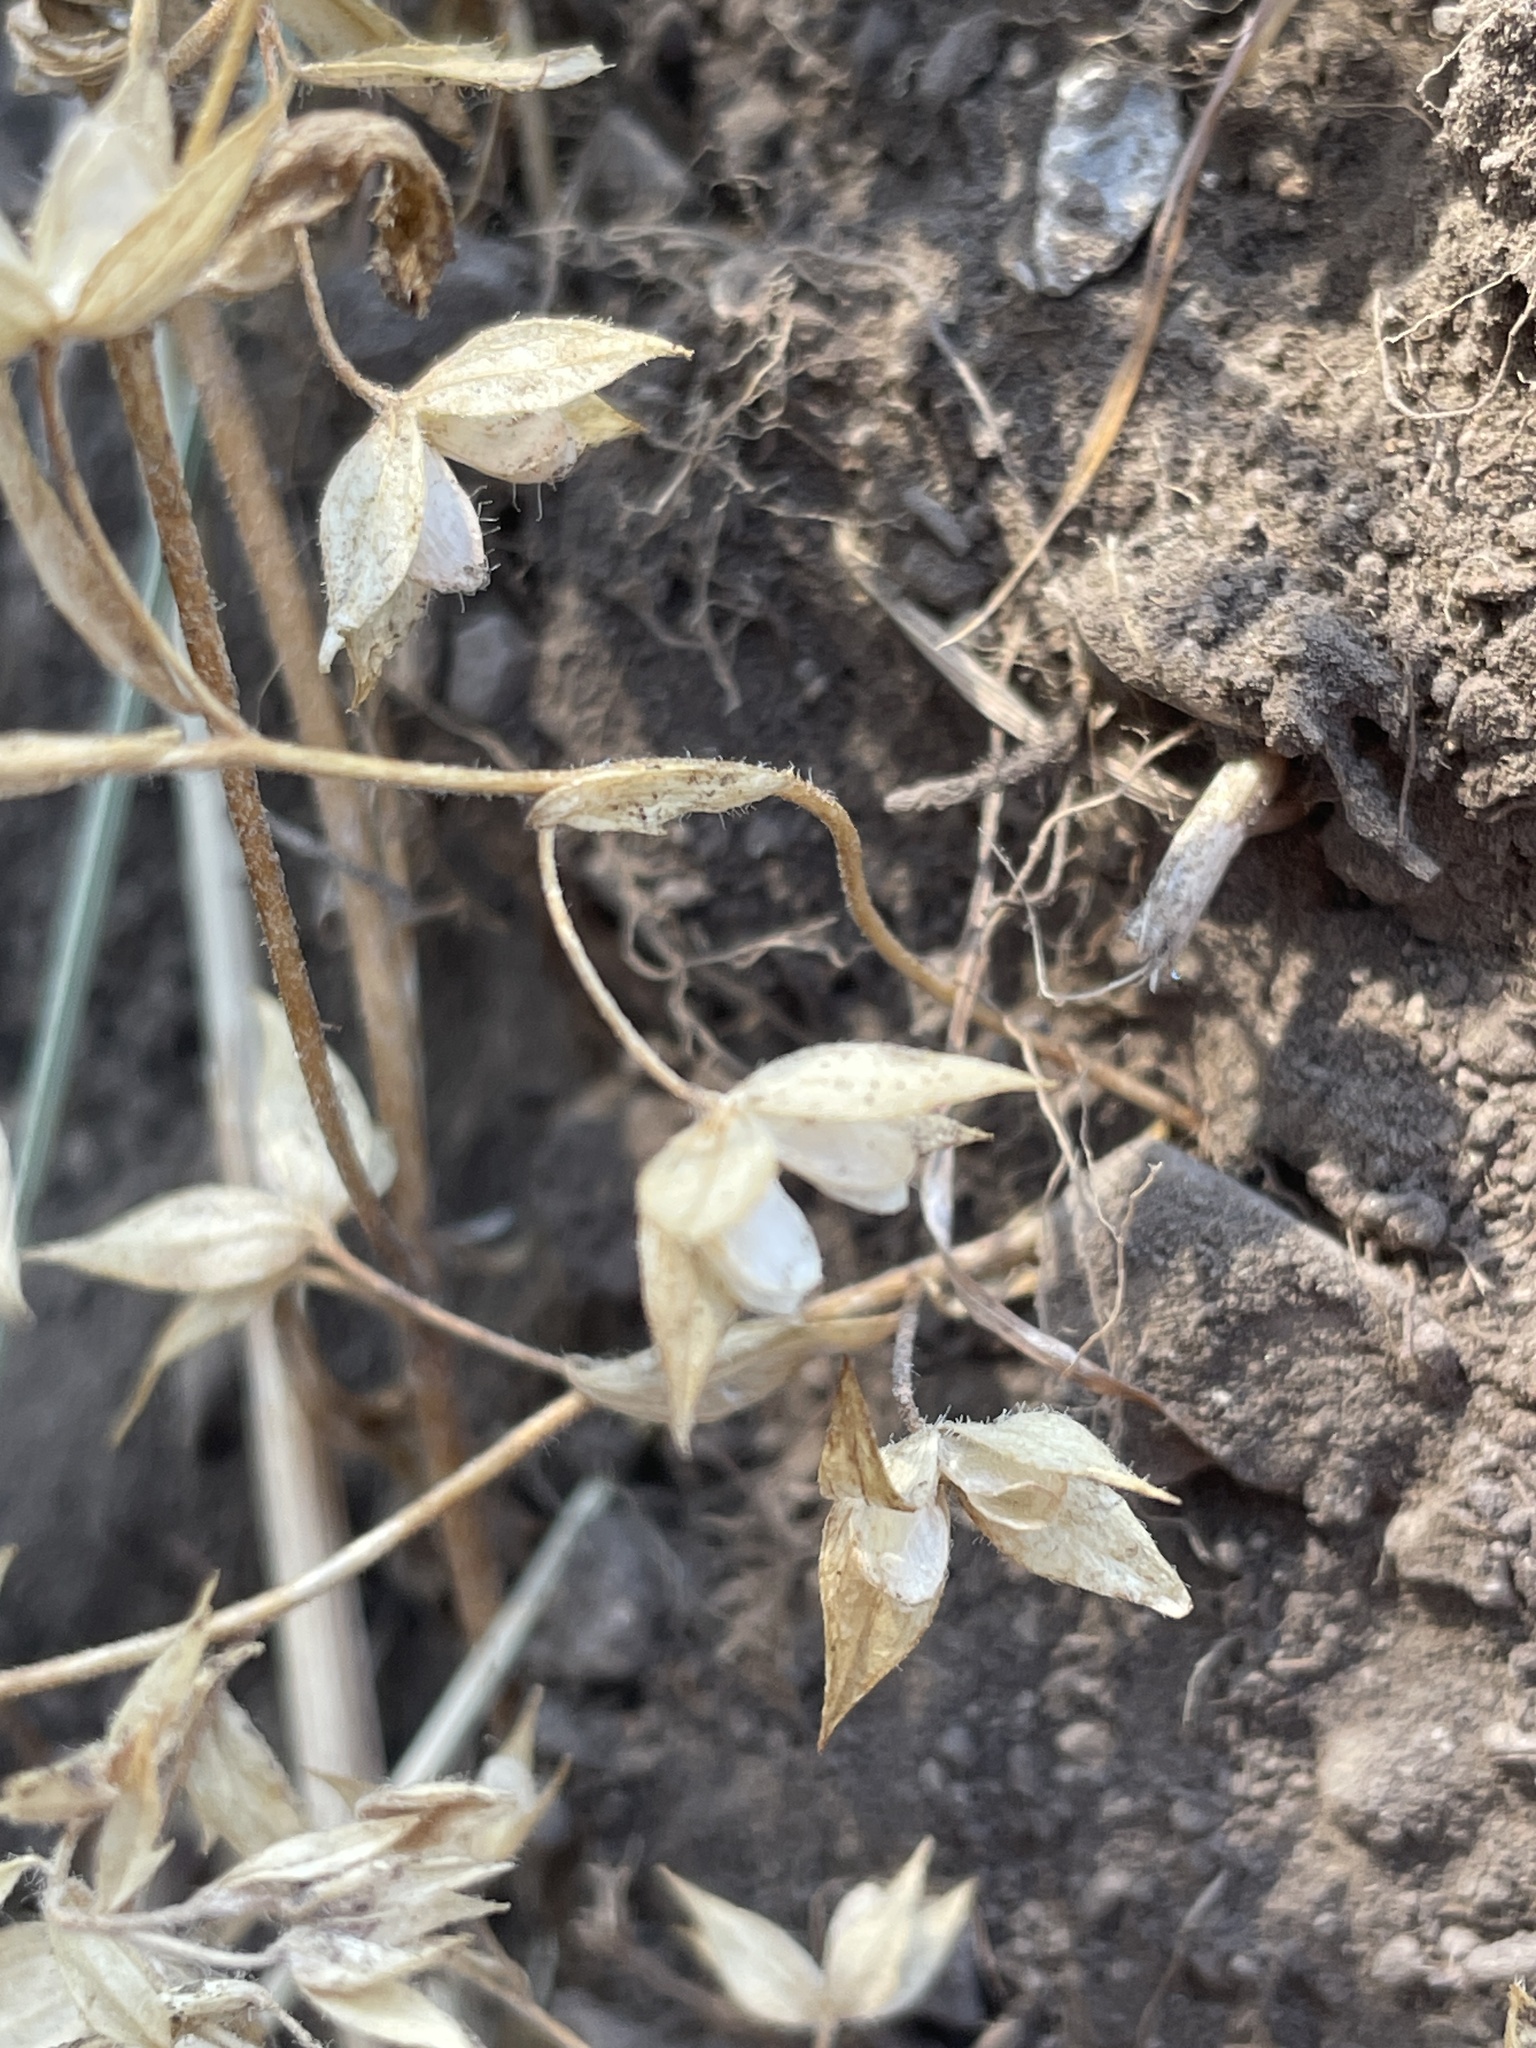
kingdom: Plantae
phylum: Tracheophyta
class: Magnoliopsida
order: Lamiales
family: Plantaginaceae
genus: Veronica
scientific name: Veronica biloba
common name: Twolobe speedwell
